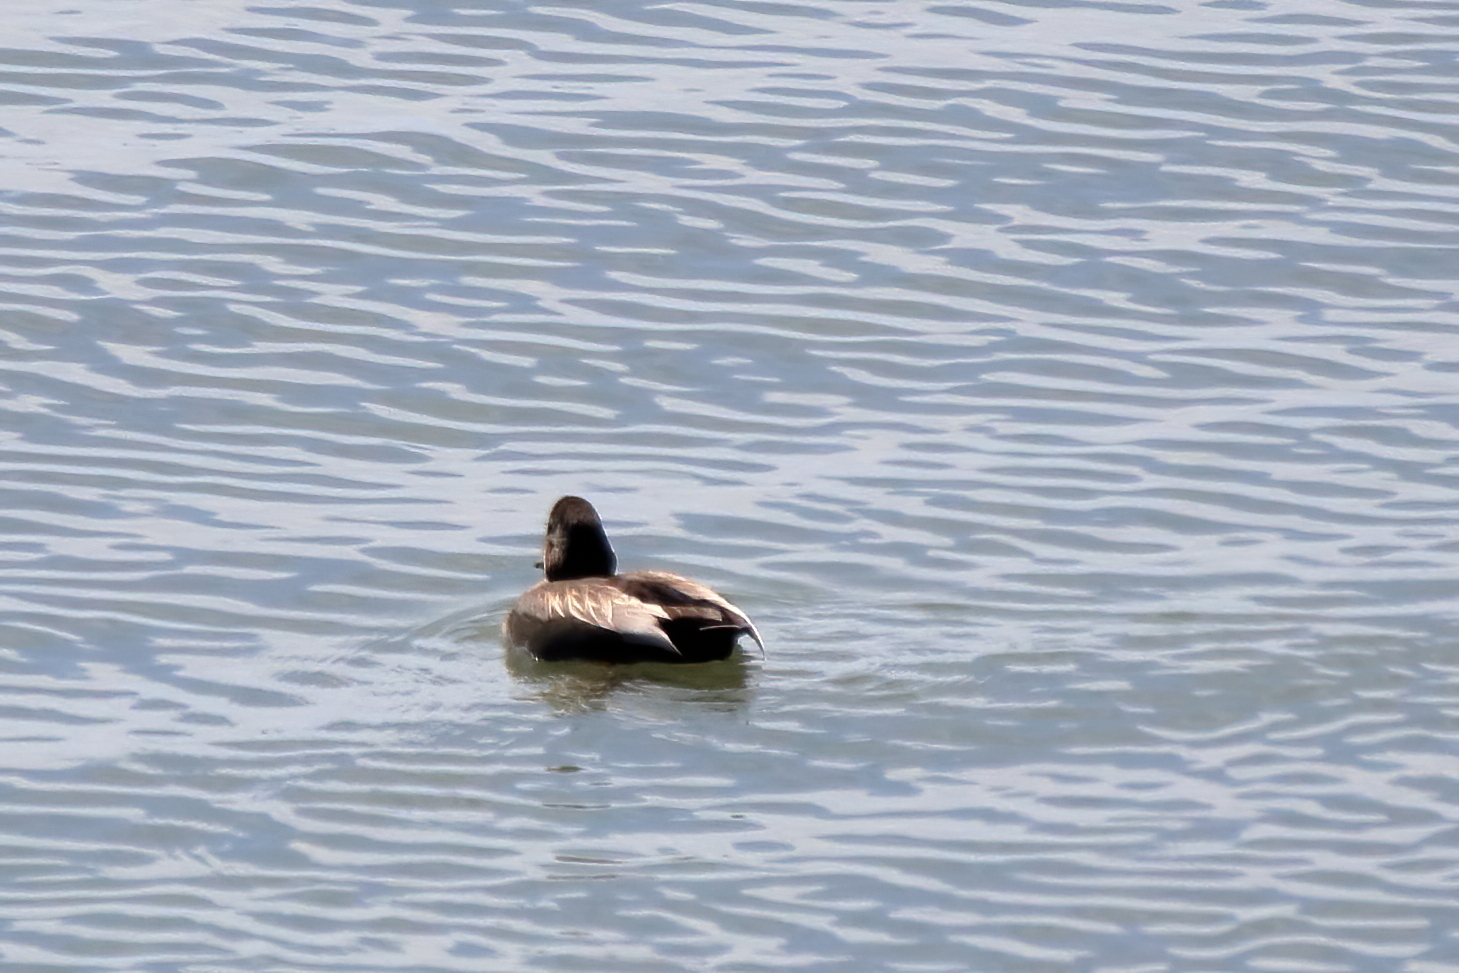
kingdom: Animalia
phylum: Chordata
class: Aves
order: Anseriformes
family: Anatidae
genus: Mareca
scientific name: Mareca strepera
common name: Gadwall
